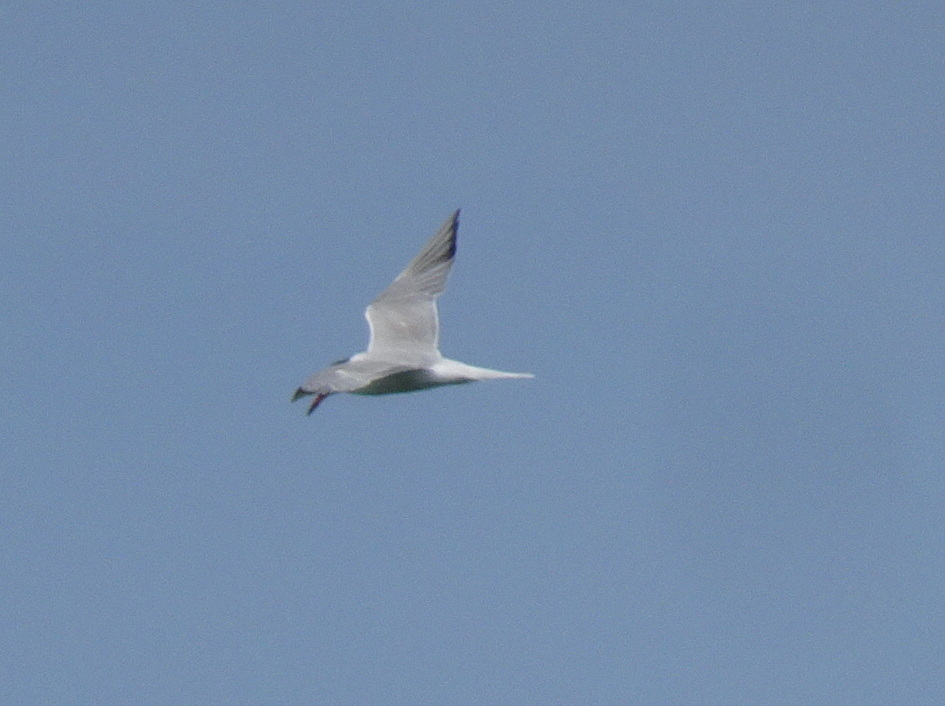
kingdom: Animalia
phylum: Chordata
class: Aves
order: Charadriiformes
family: Laridae
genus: Sterna
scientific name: Sterna hirundo
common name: Common tern
